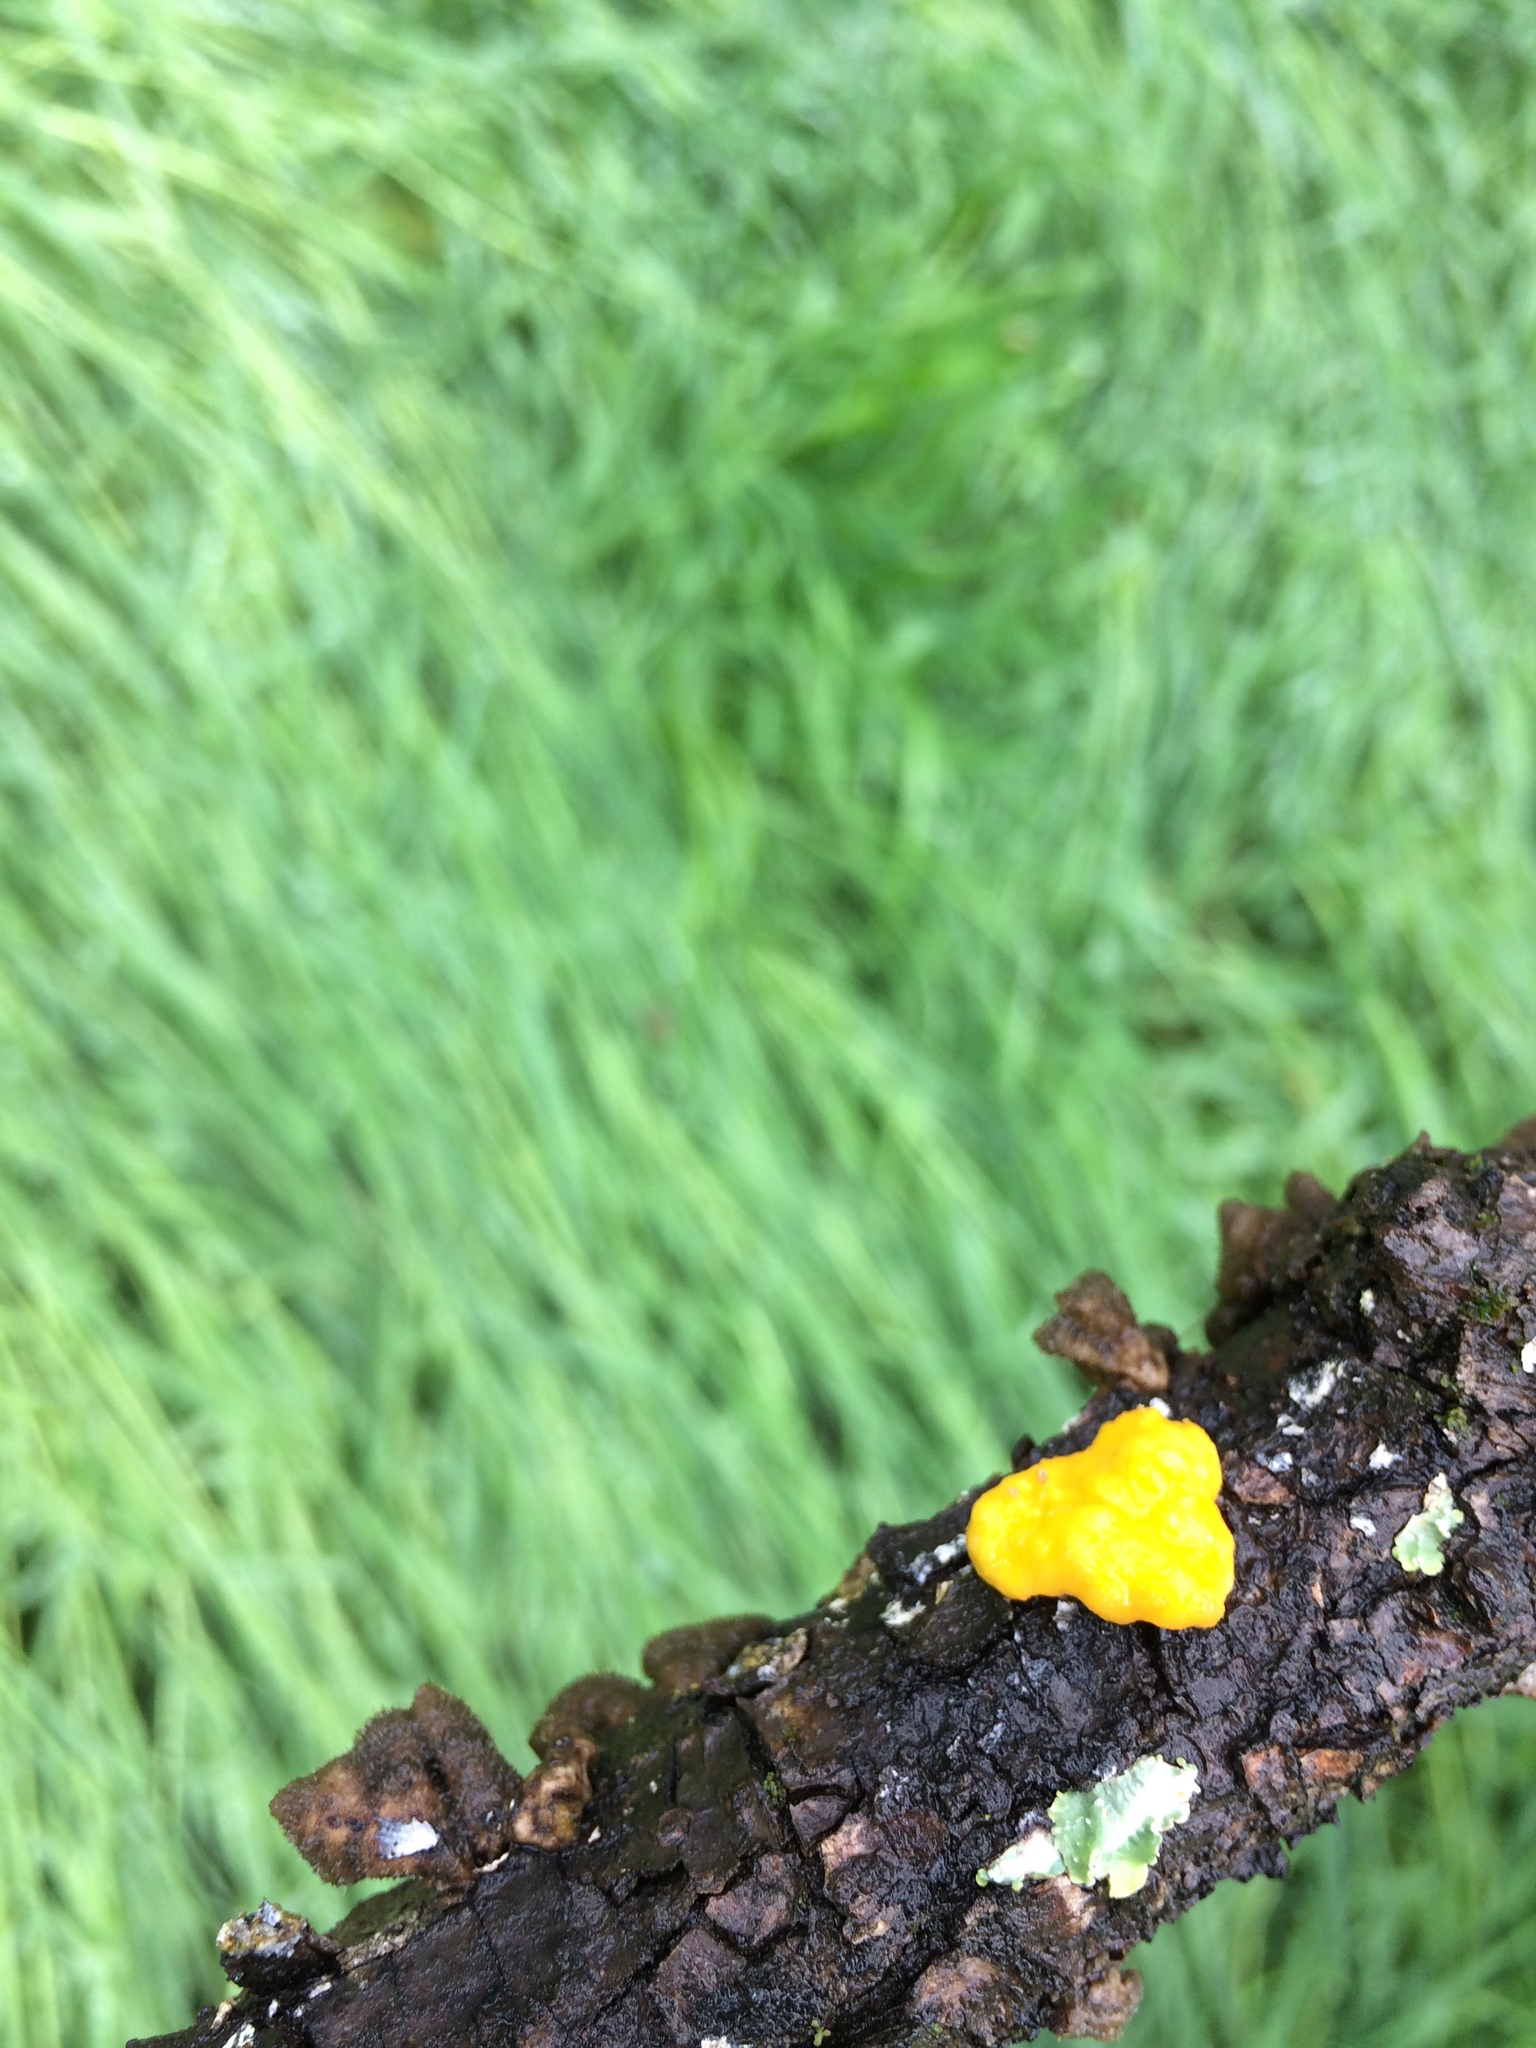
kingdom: Fungi
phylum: Basidiomycota
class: Tremellomycetes
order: Tremellales
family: Naemateliaceae
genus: Naematelia
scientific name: Naematelia aurantia
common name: Golden ear
